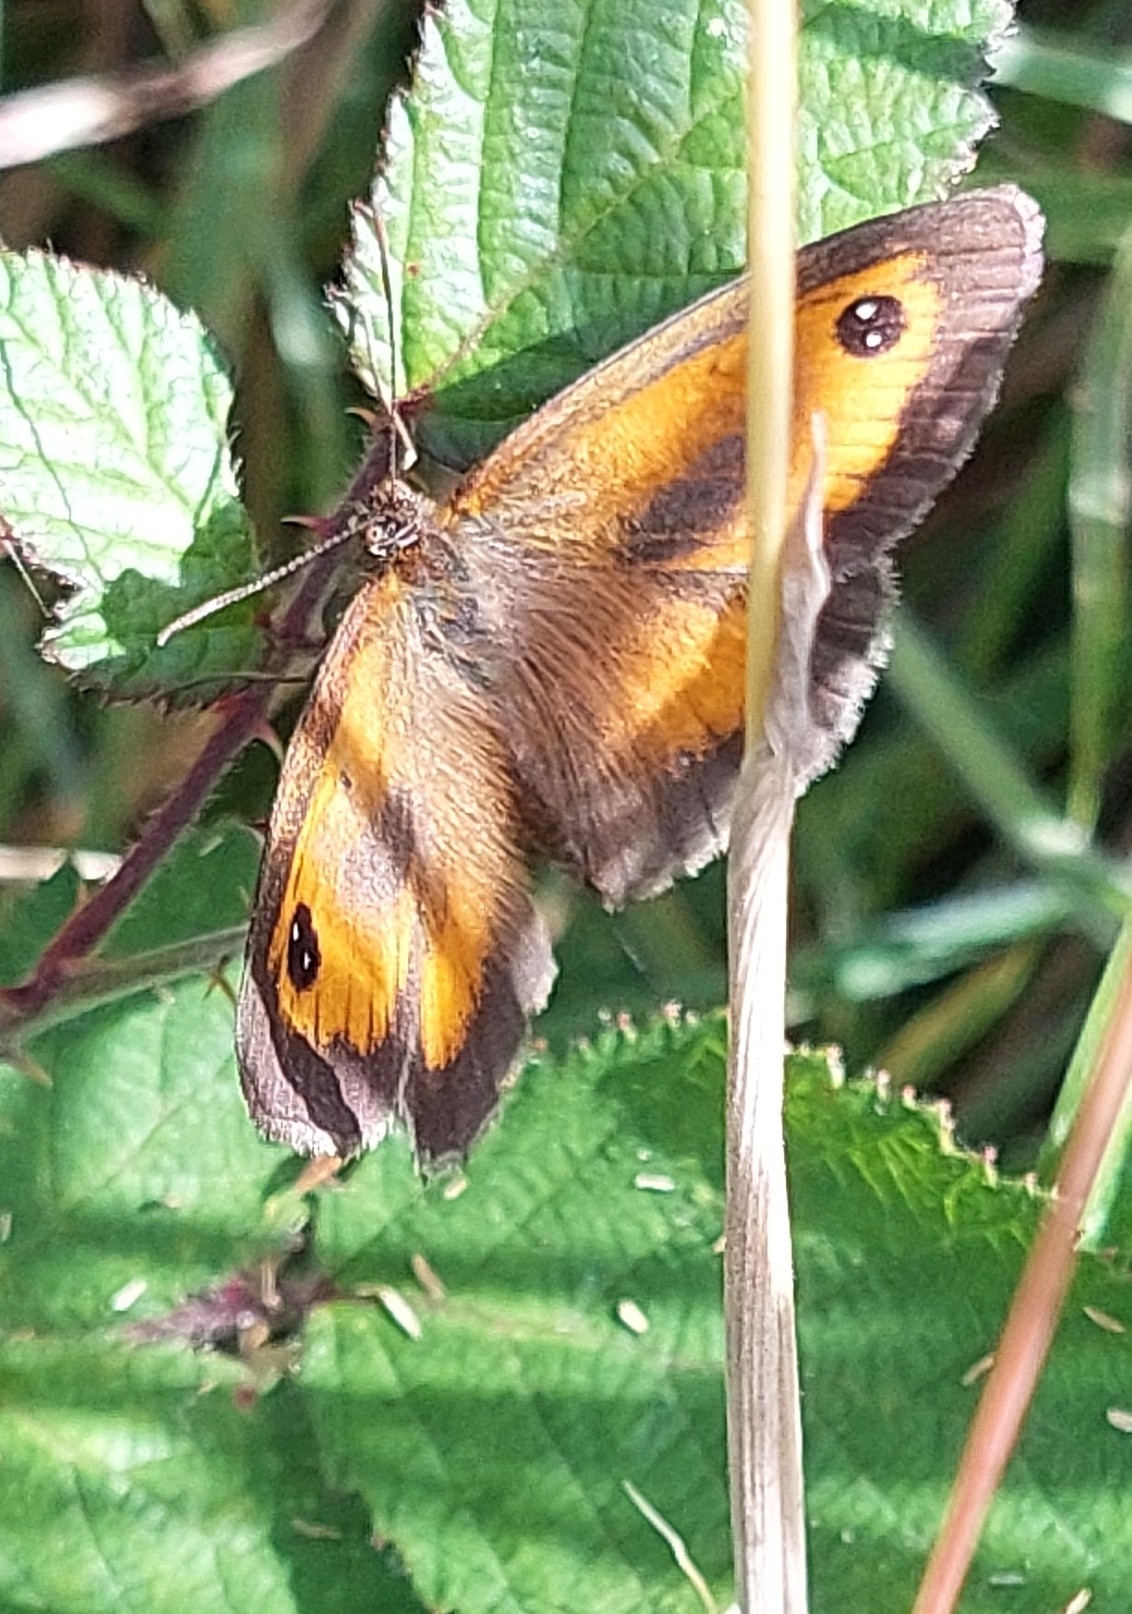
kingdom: Animalia
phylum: Arthropoda
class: Insecta
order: Lepidoptera
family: Nymphalidae
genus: Pyronia
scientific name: Pyronia tithonus
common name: Gatekeeper
